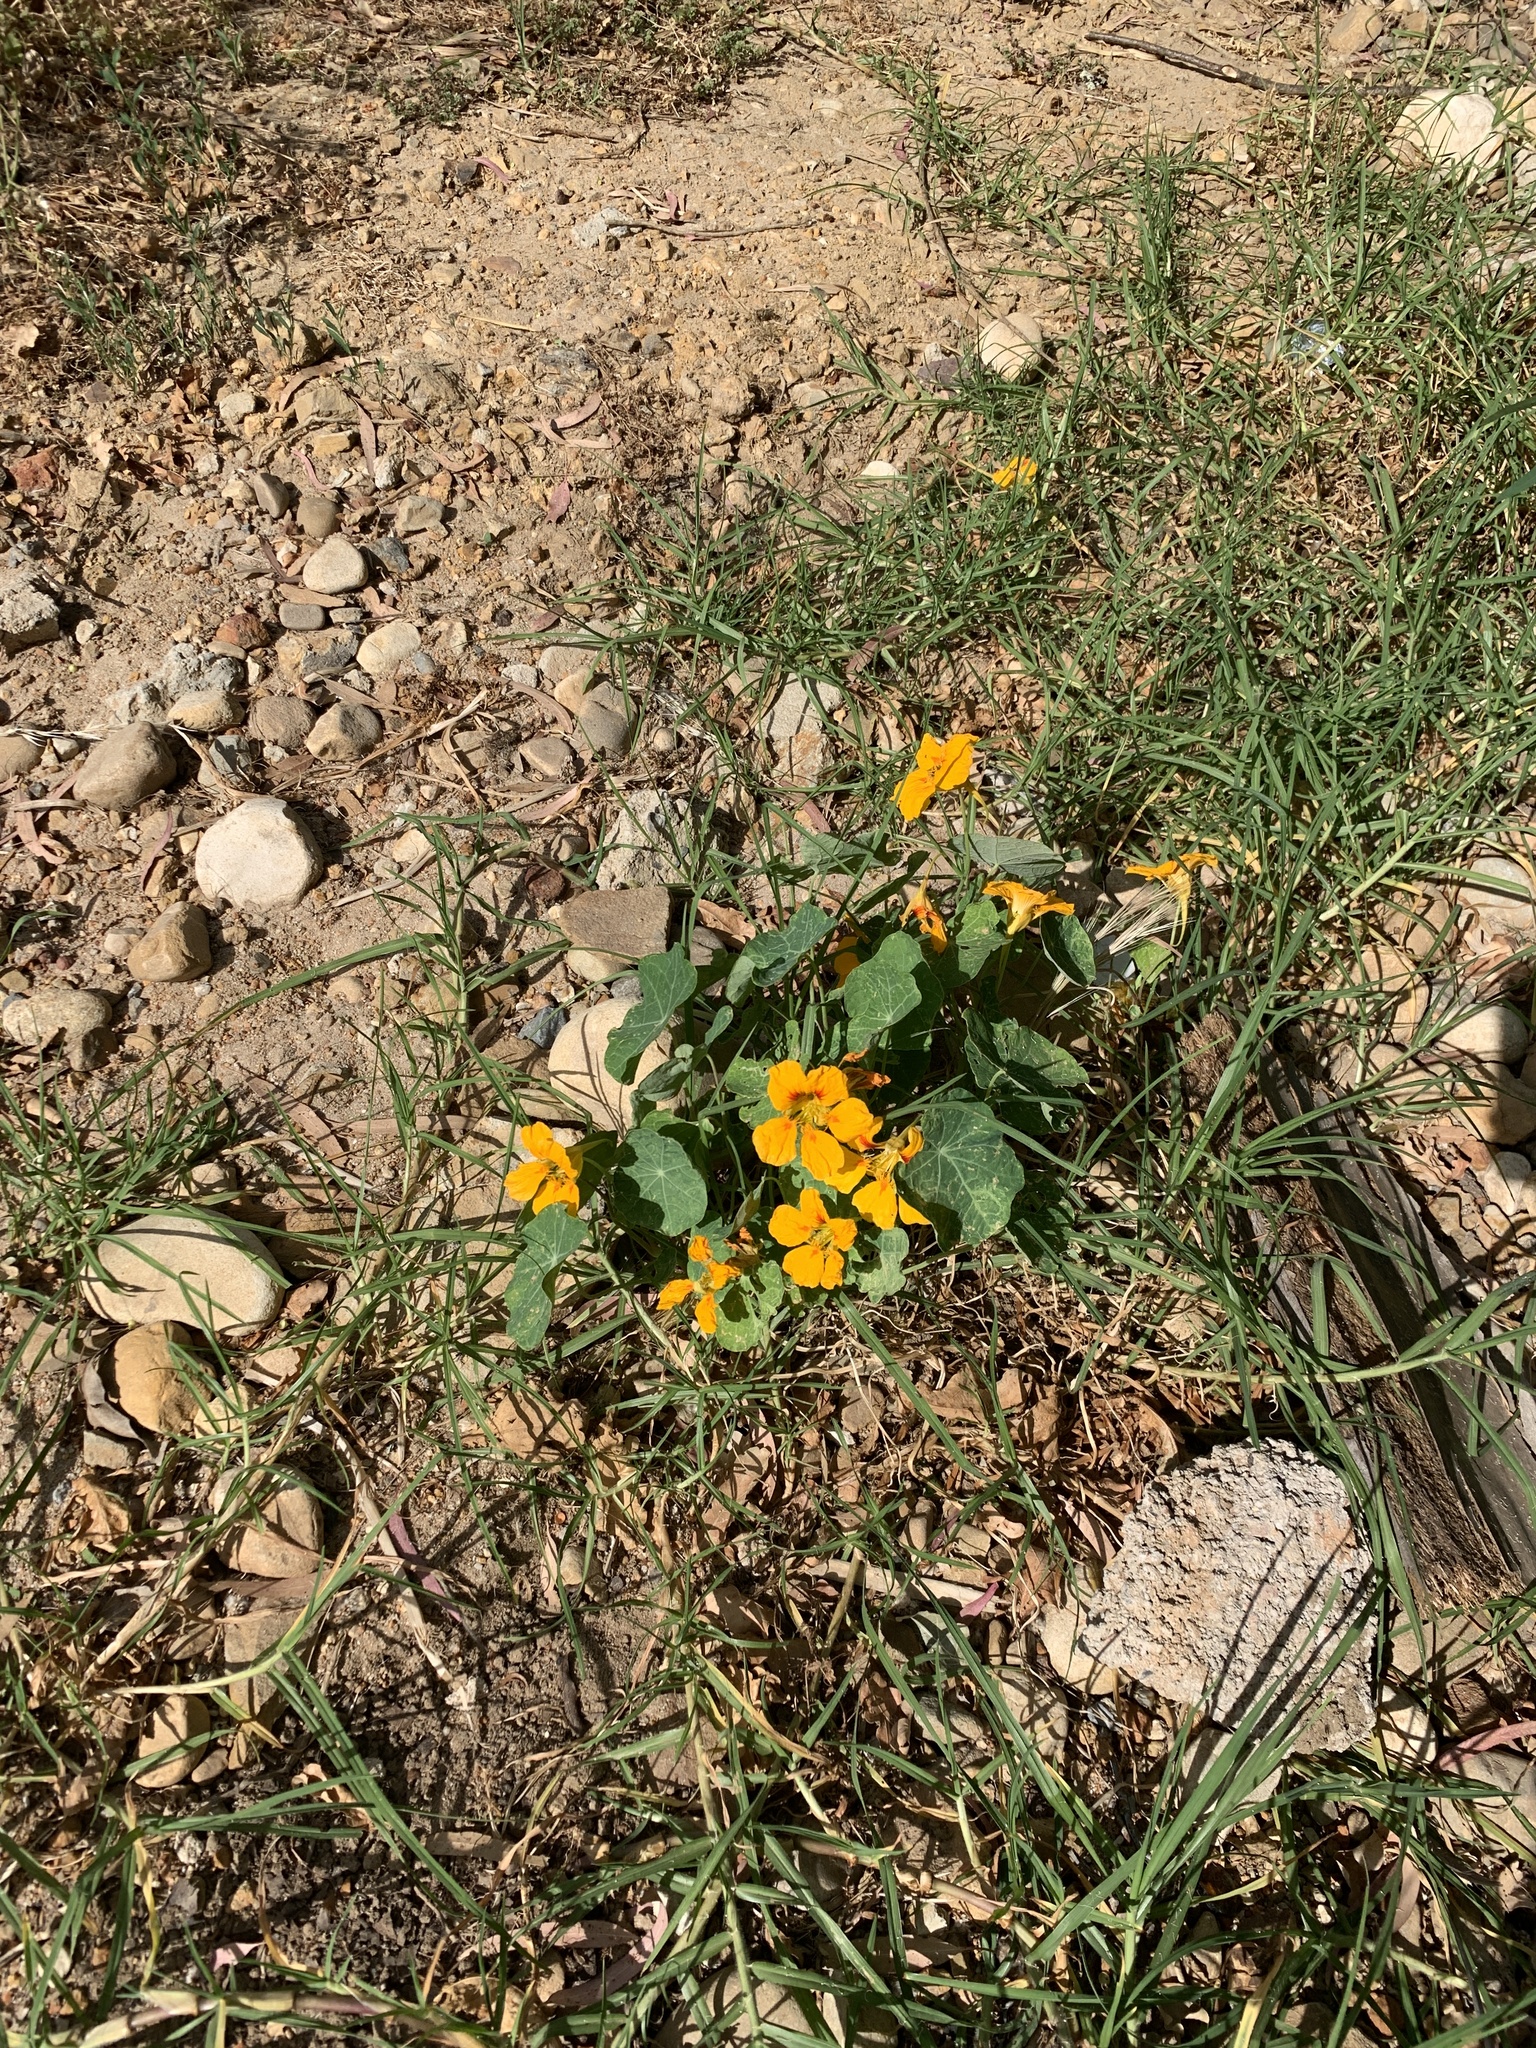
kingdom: Plantae
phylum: Tracheophyta
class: Magnoliopsida
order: Brassicales
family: Tropaeolaceae
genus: Tropaeolum
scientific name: Tropaeolum majus
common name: Nasturtium
